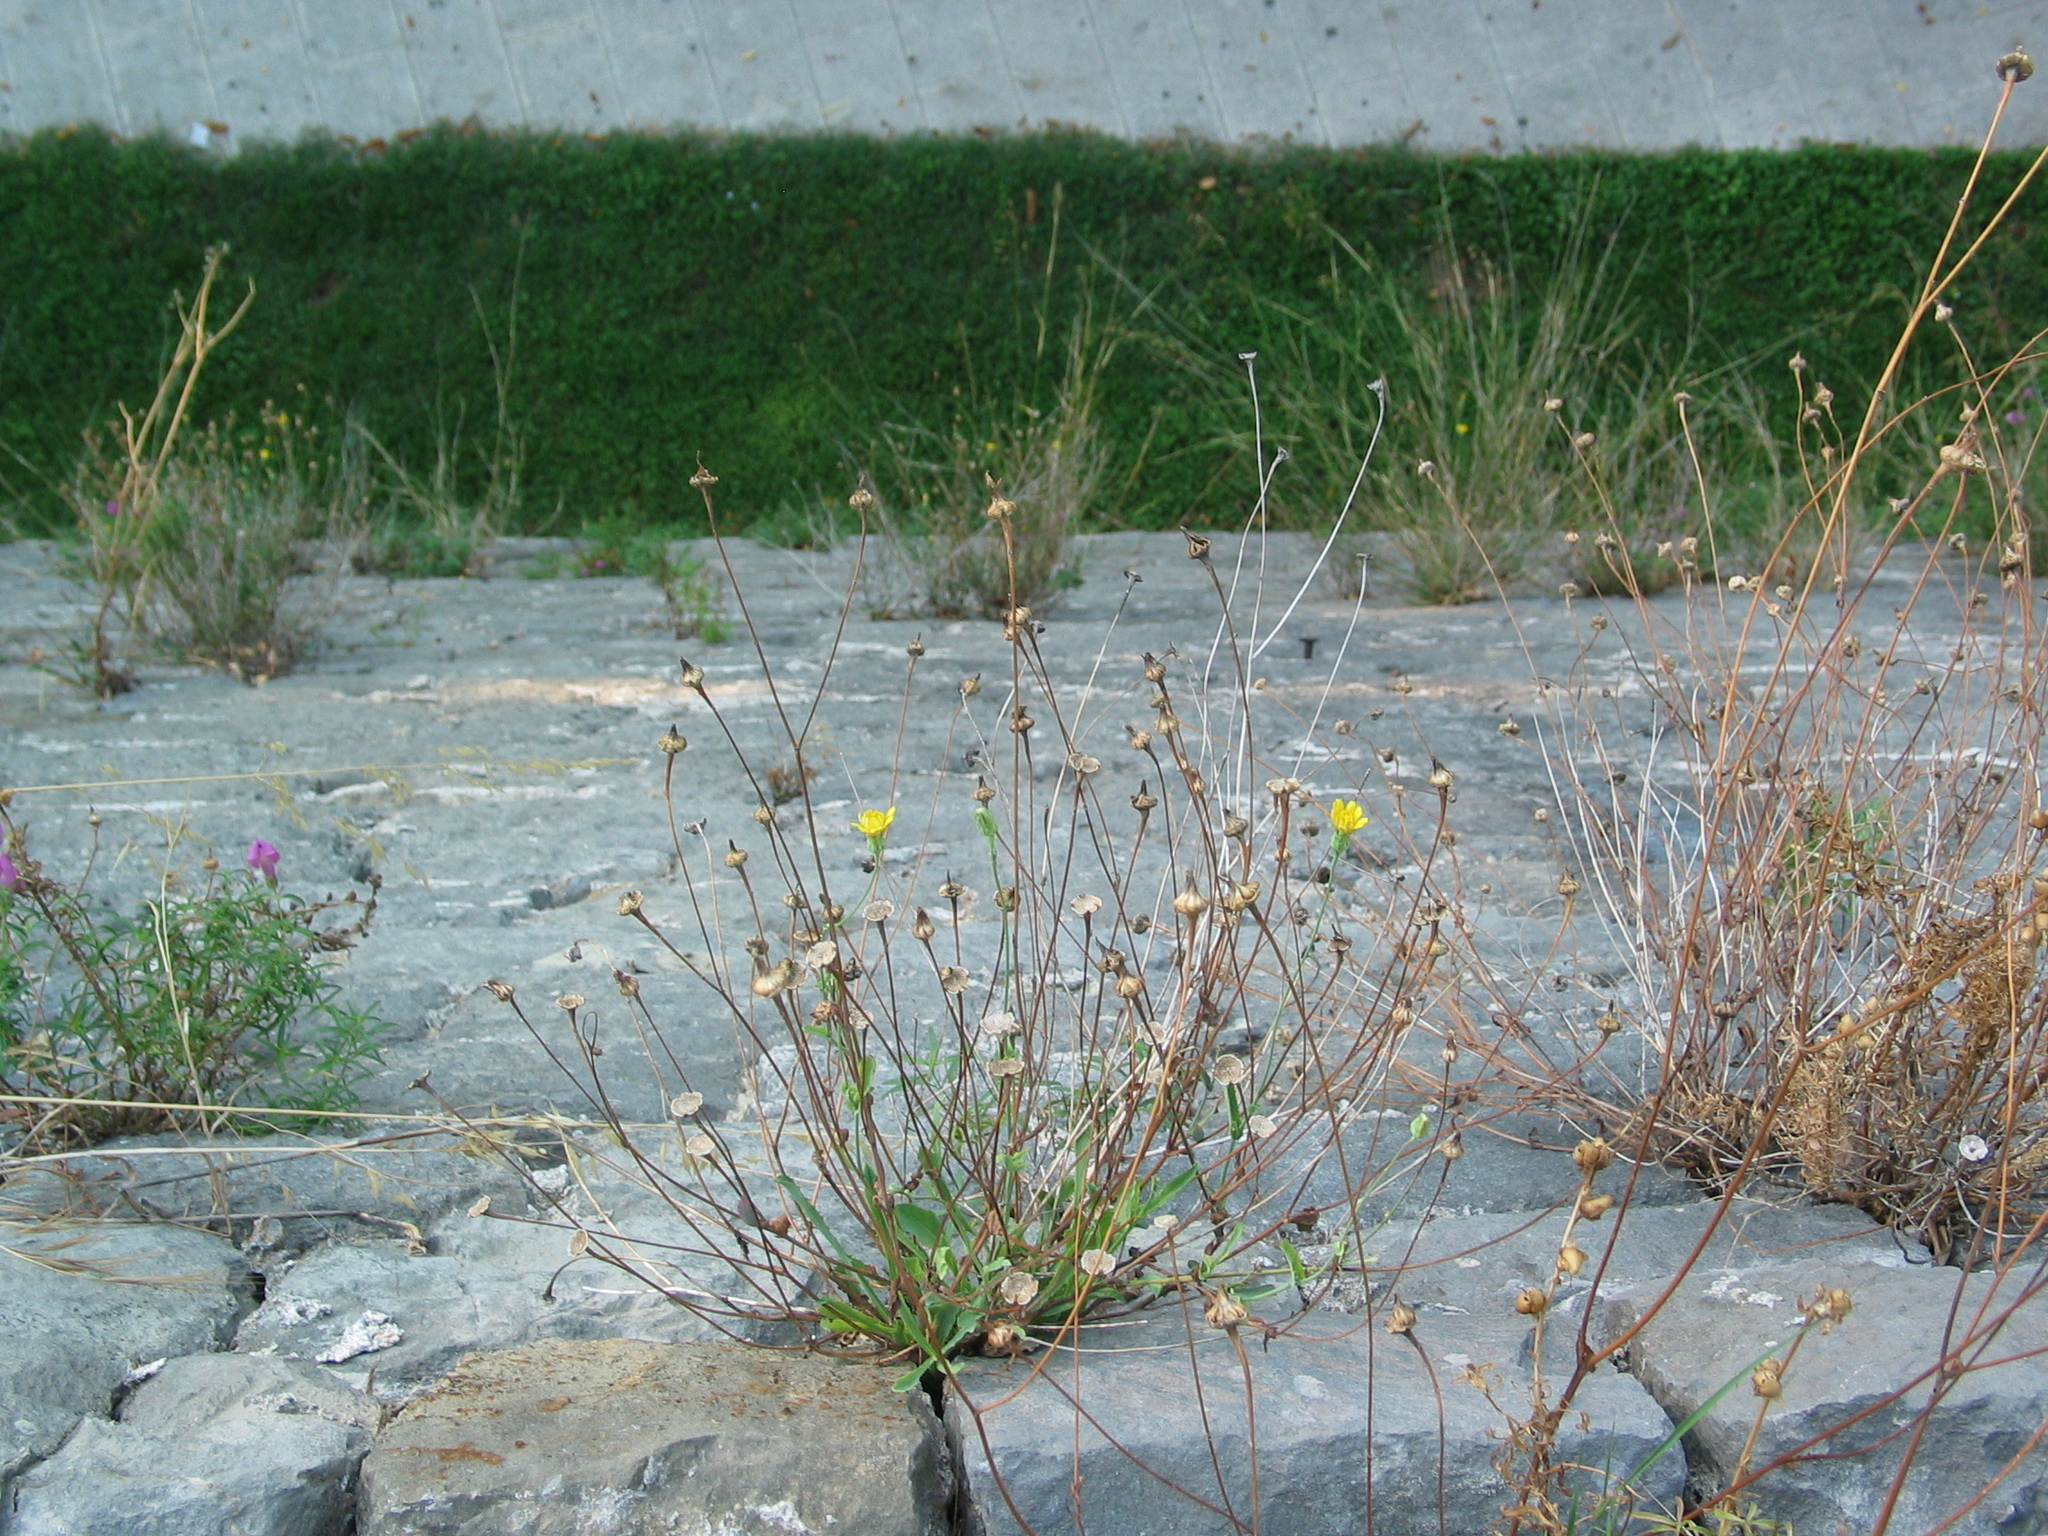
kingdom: Plantae
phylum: Tracheophyta
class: Magnoliopsida
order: Asterales
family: Asteraceae
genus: Reichardia
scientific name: Reichardia picroides
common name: Common brighteyes
